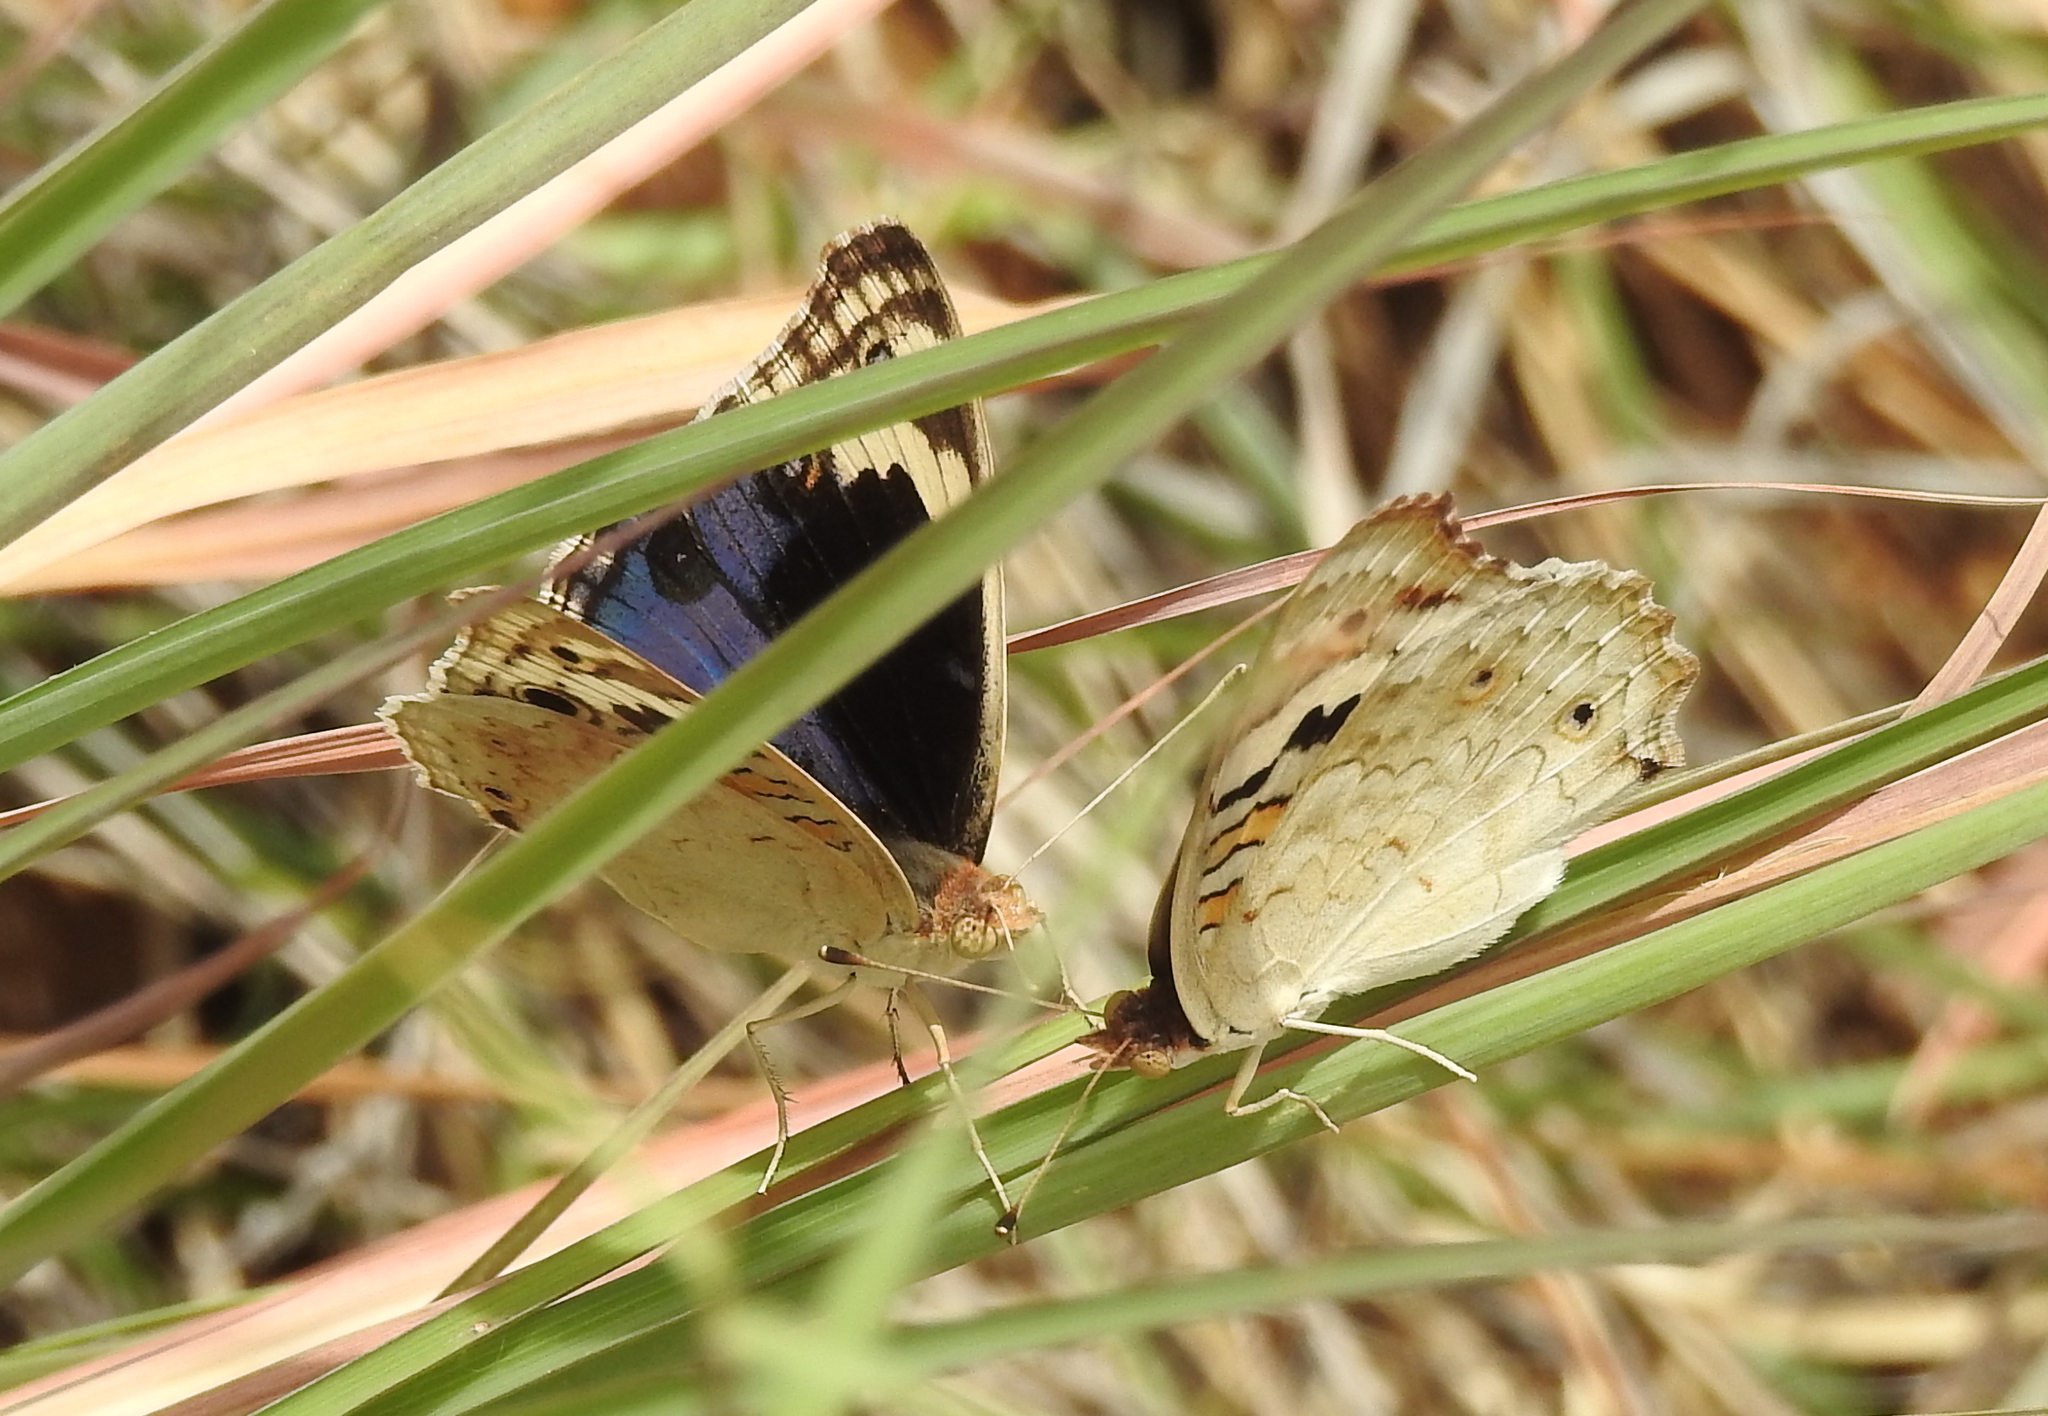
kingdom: Animalia
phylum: Arthropoda
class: Insecta
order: Lepidoptera
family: Nymphalidae
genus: Junonia
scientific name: Junonia orithya
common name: Blue pansy
